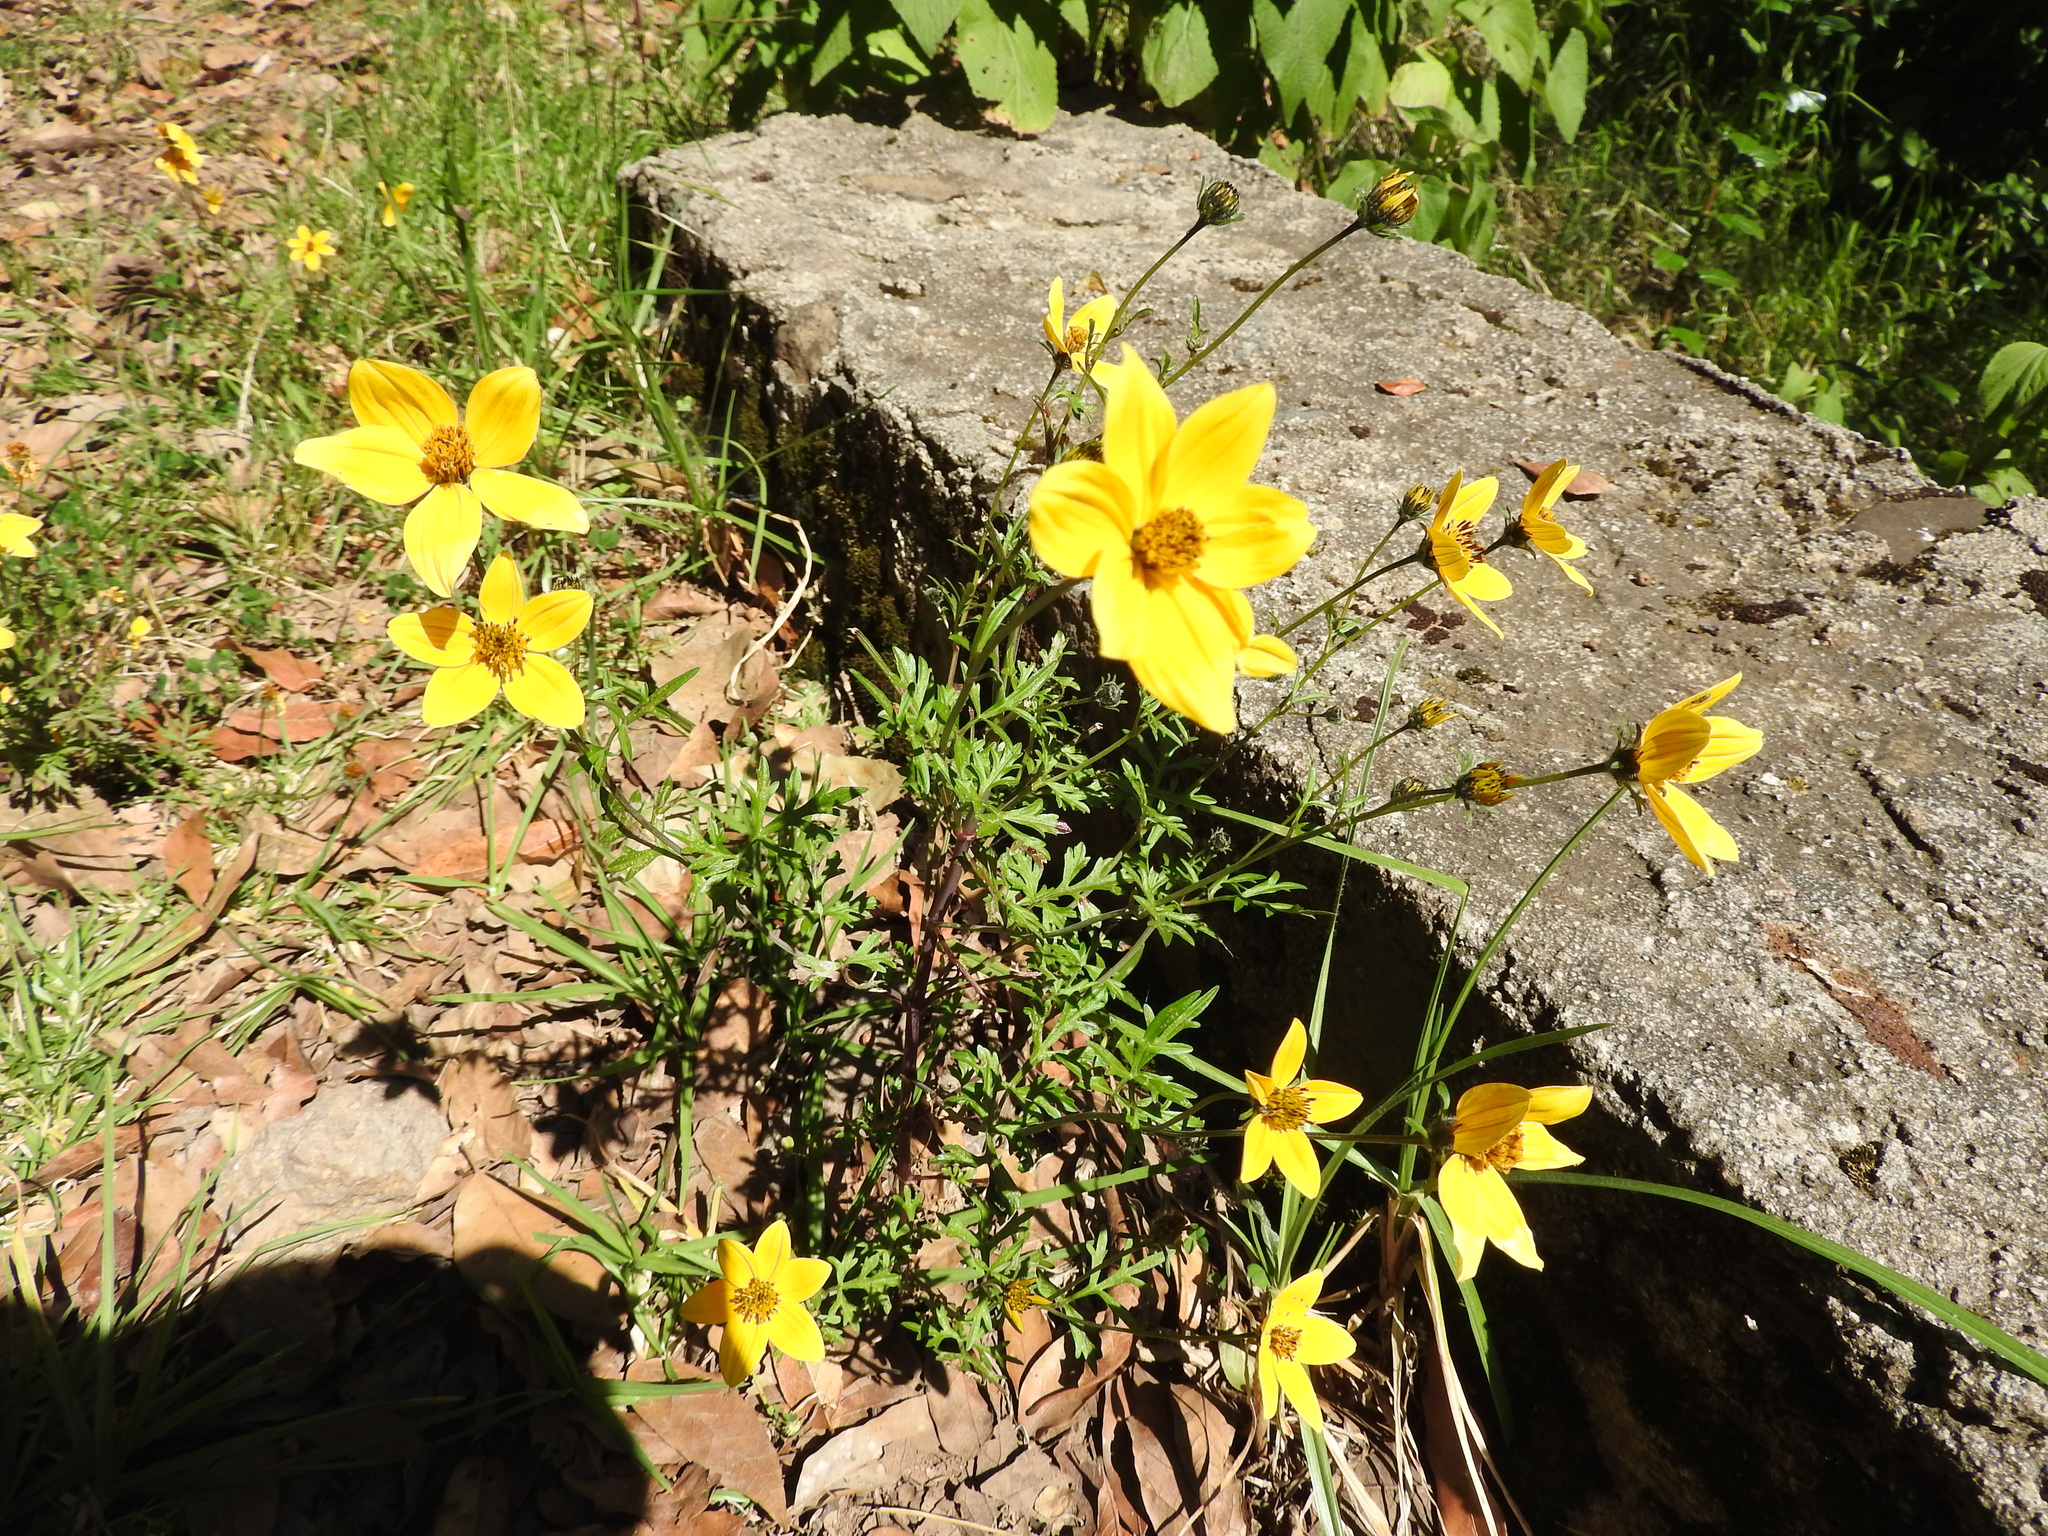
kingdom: Plantae
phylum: Tracheophyta
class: Magnoliopsida
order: Asterales
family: Asteraceae
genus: Bidens
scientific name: Bidens triplinervia
